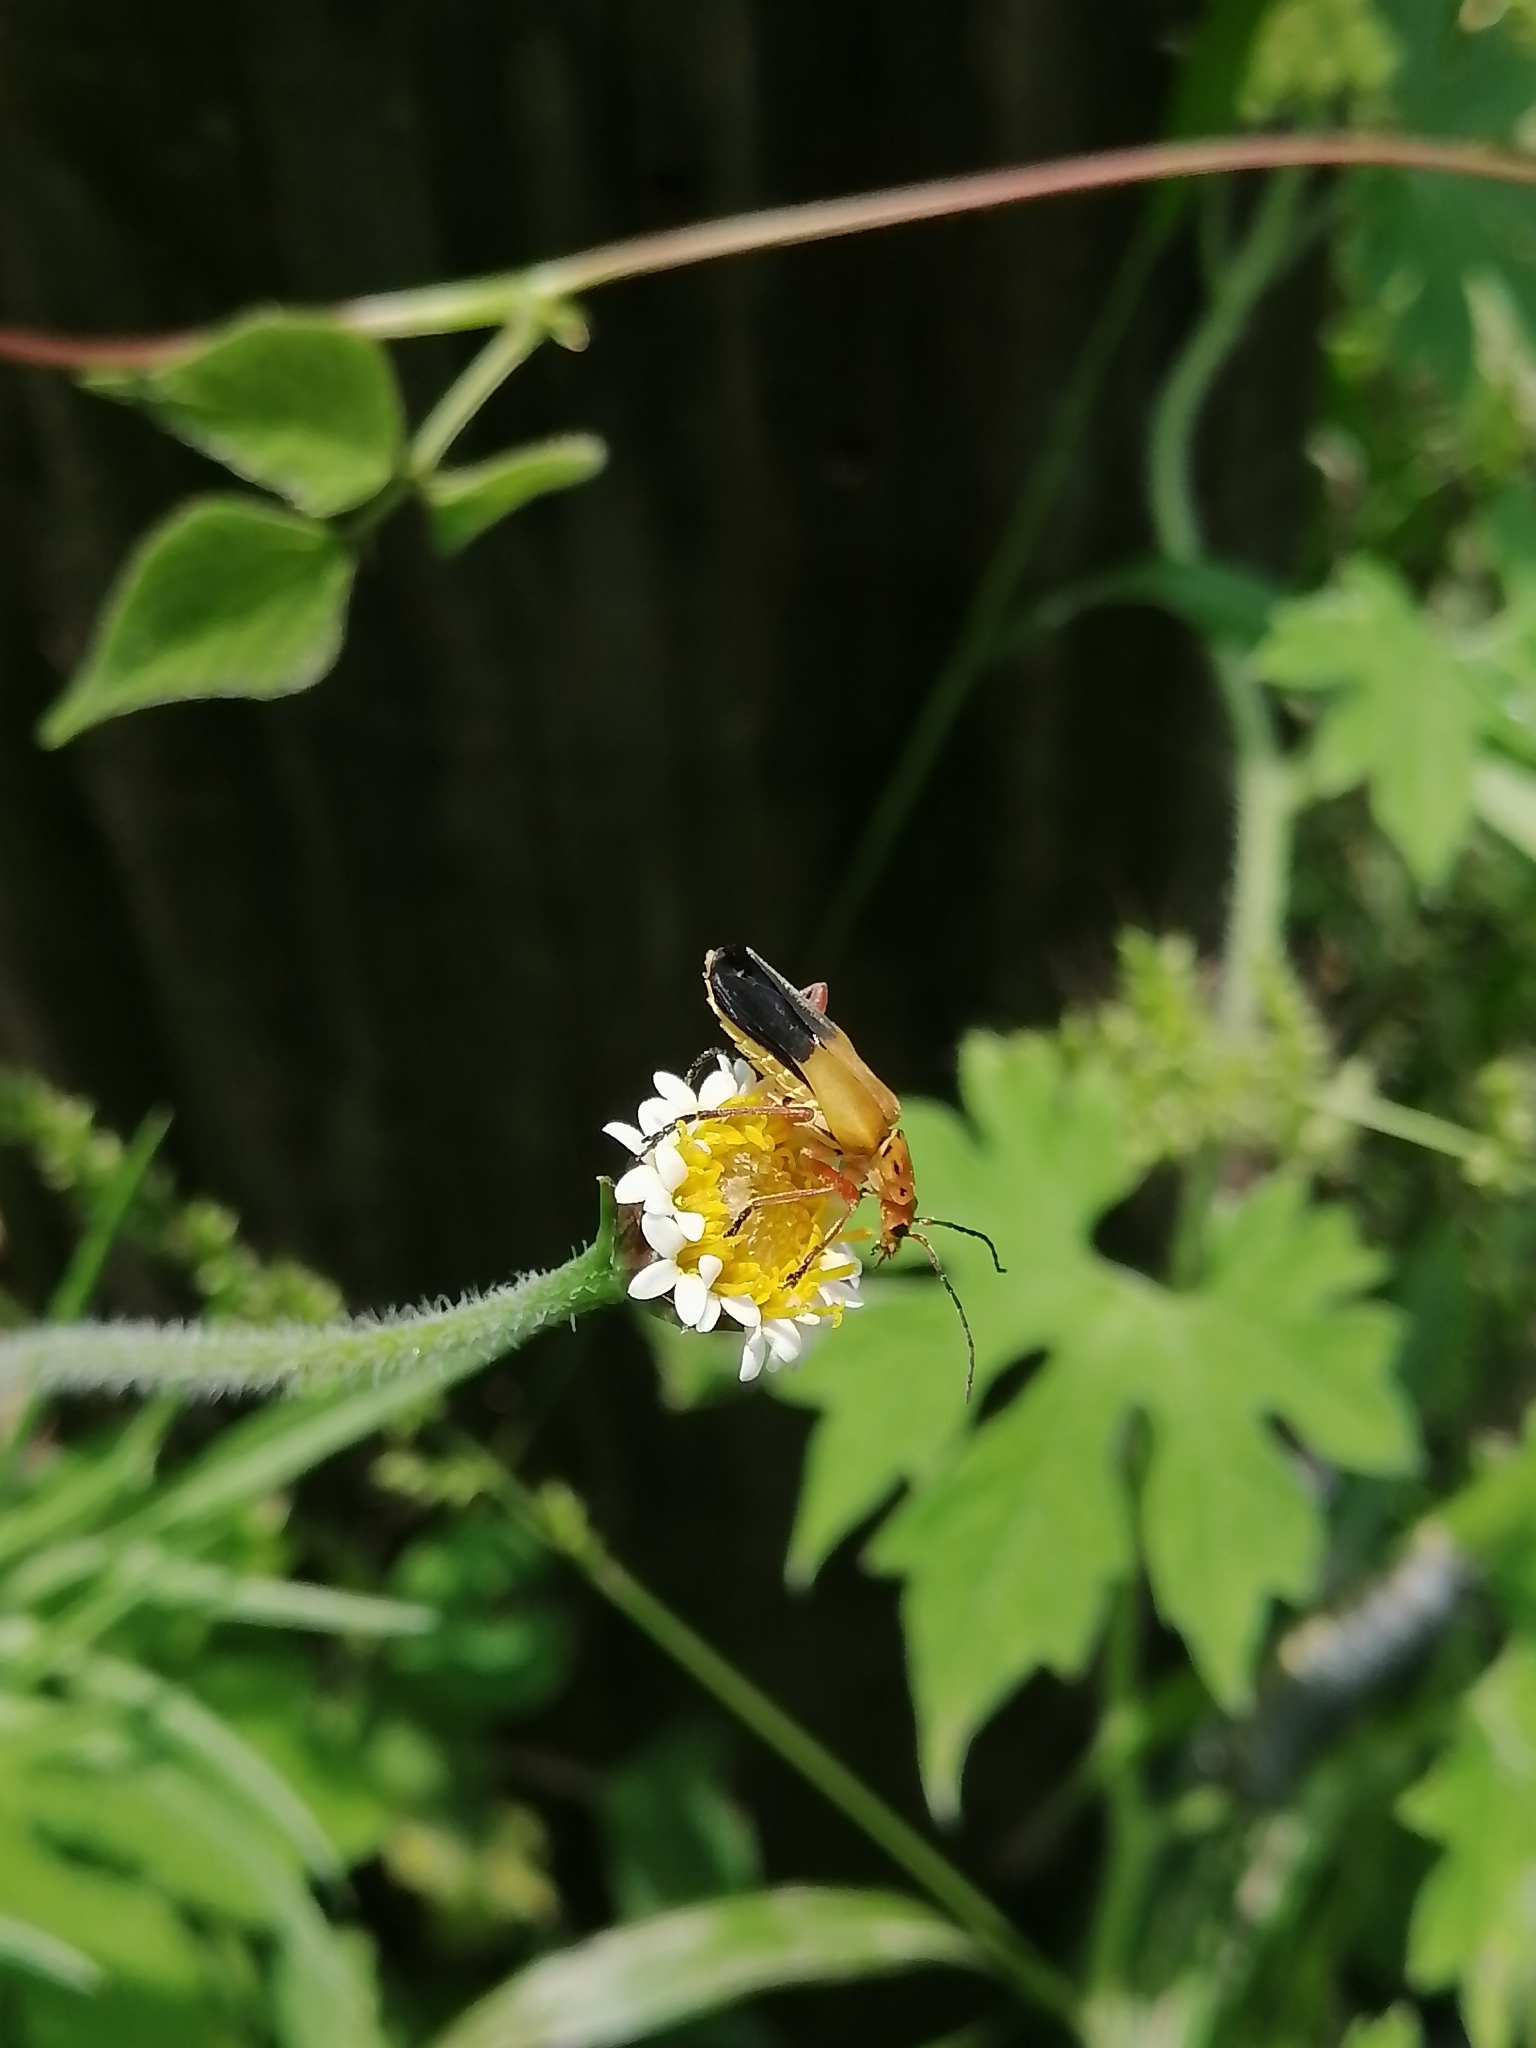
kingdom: Animalia
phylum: Arthropoda
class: Insecta
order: Coleoptera
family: Cantharidae
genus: Chauliognathus
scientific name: Chauliognathus
